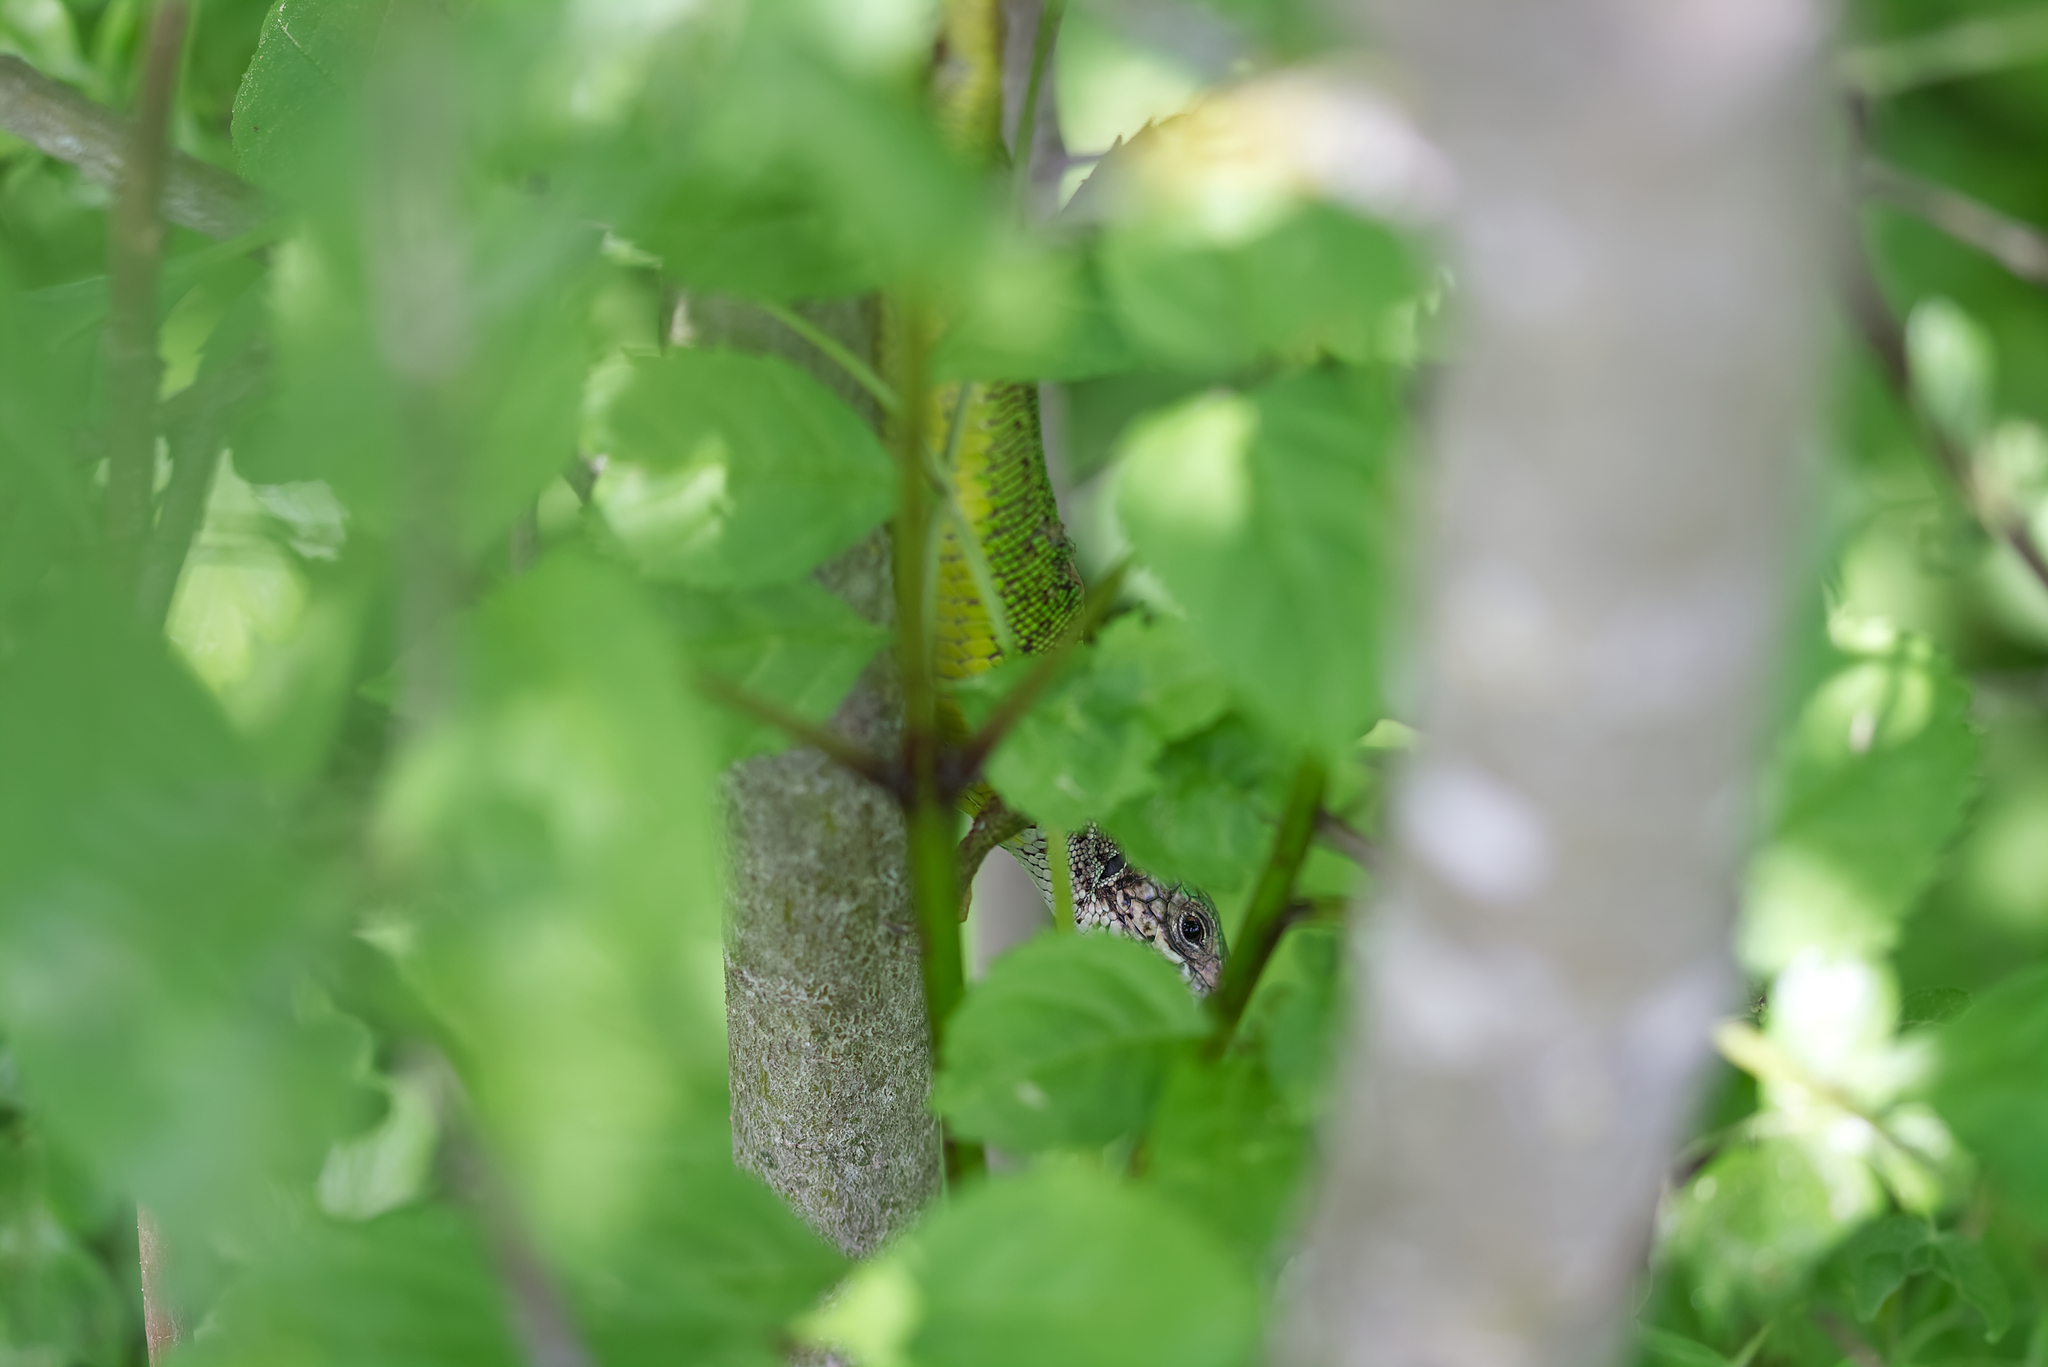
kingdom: Animalia
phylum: Chordata
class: Squamata
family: Lacertidae
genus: Lacerta
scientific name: Lacerta viridis
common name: European green lizard
